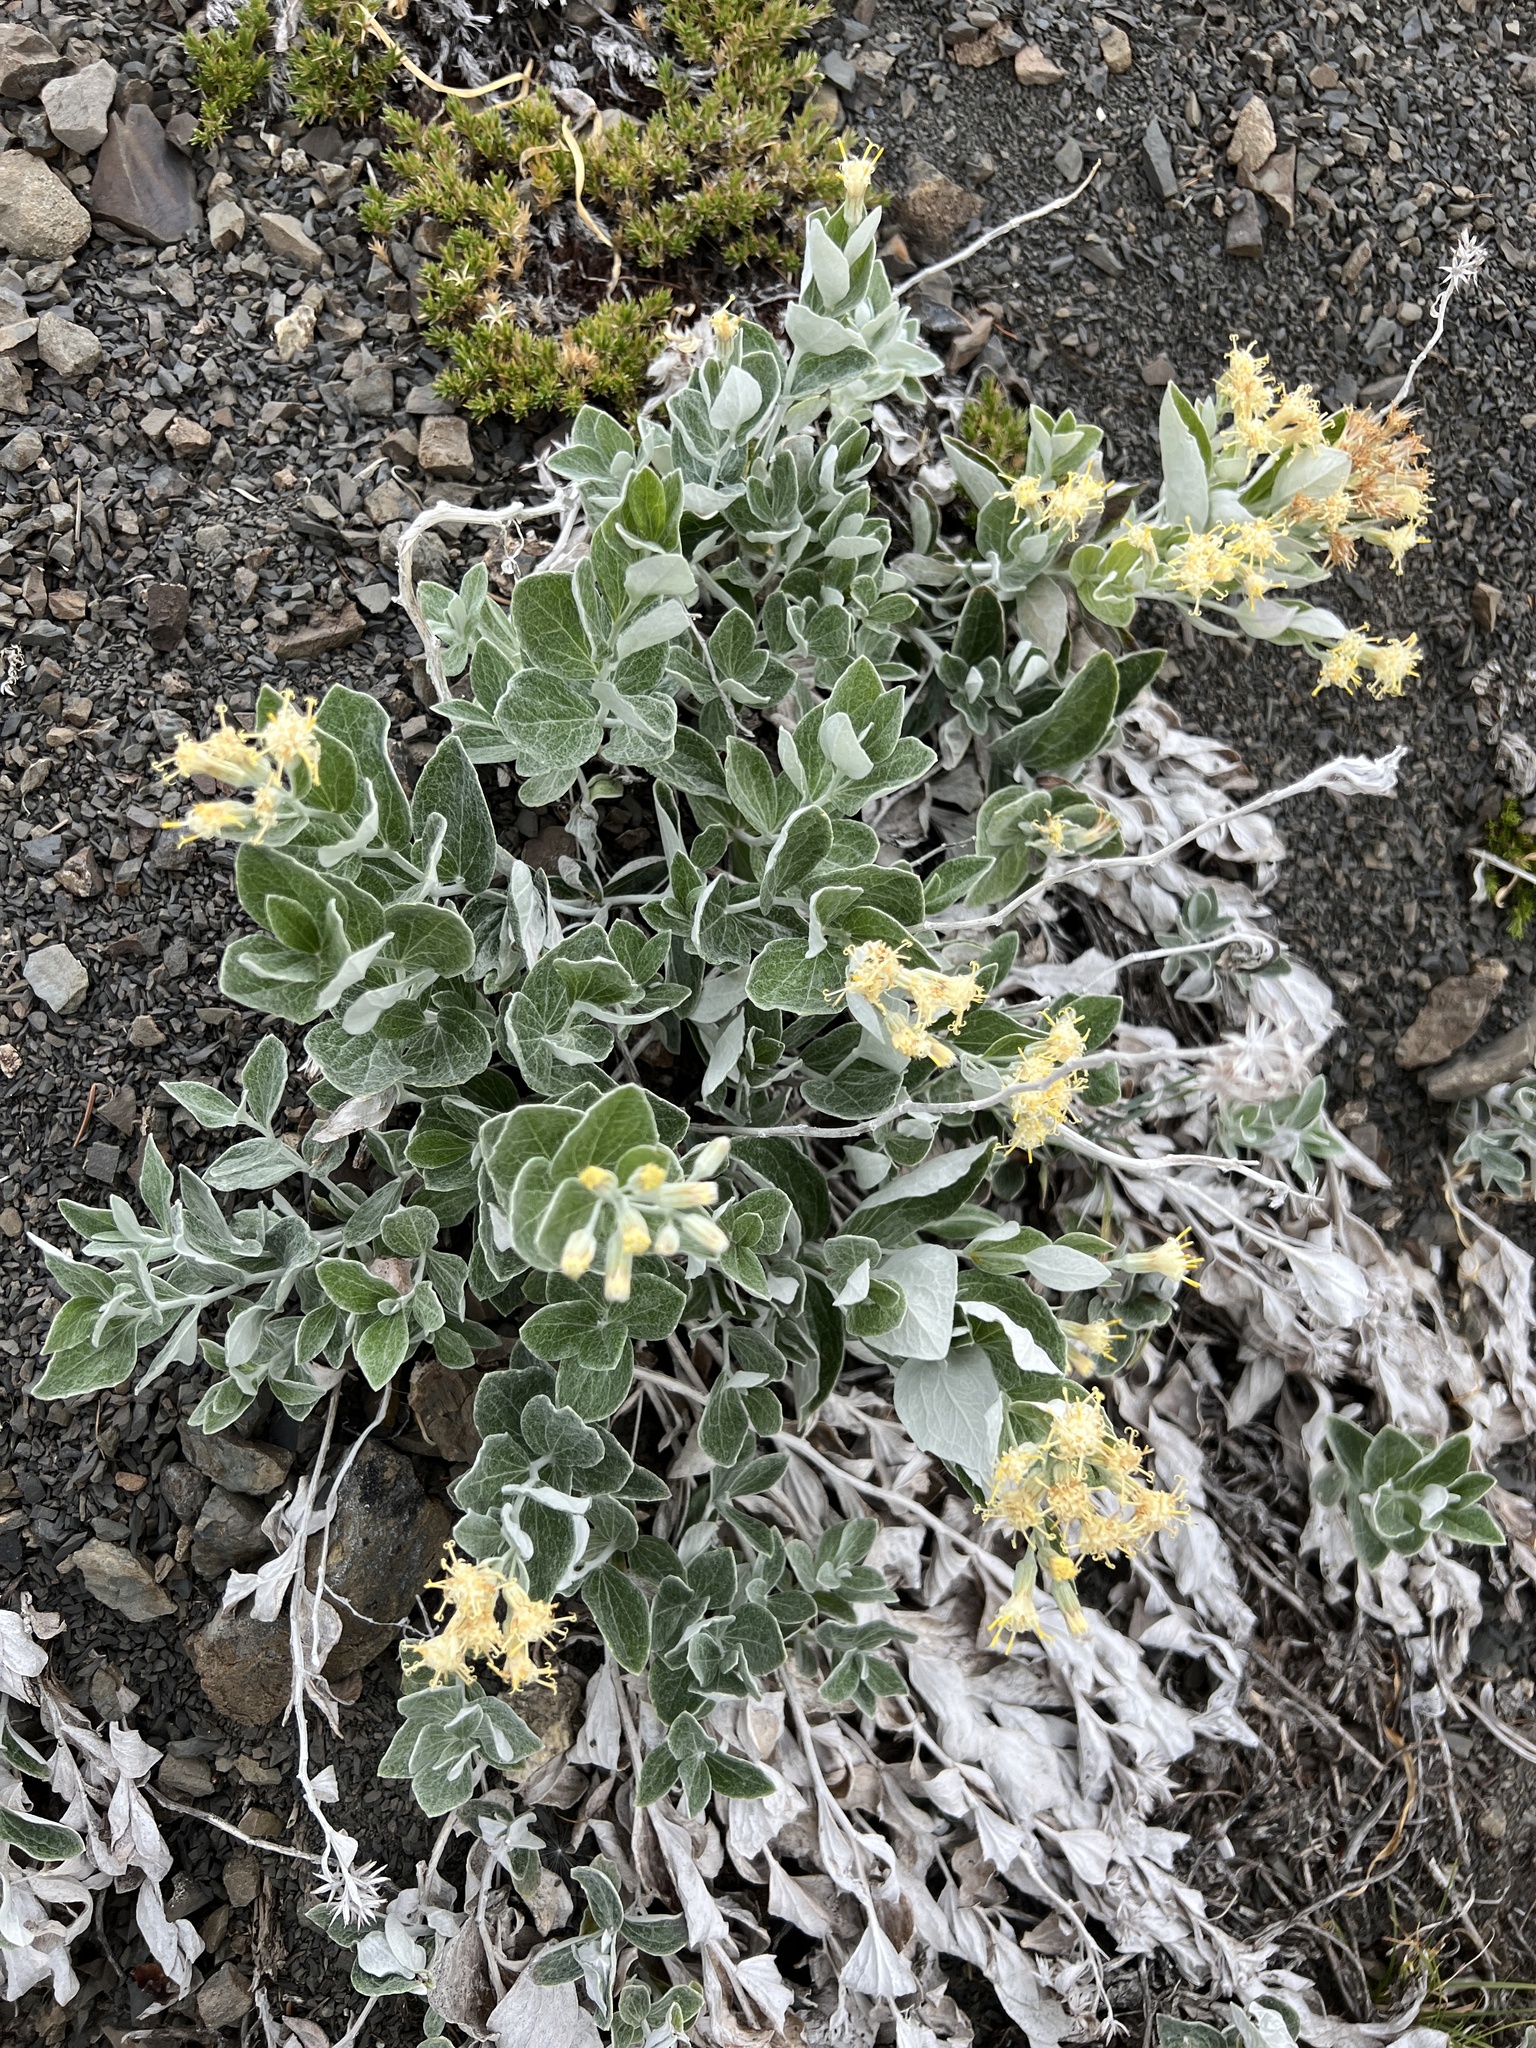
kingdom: Plantae
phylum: Tracheophyta
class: Magnoliopsida
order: Asterales
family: Asteraceae
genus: Luina
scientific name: Luina hypoleuca
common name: Little-leaved luina
